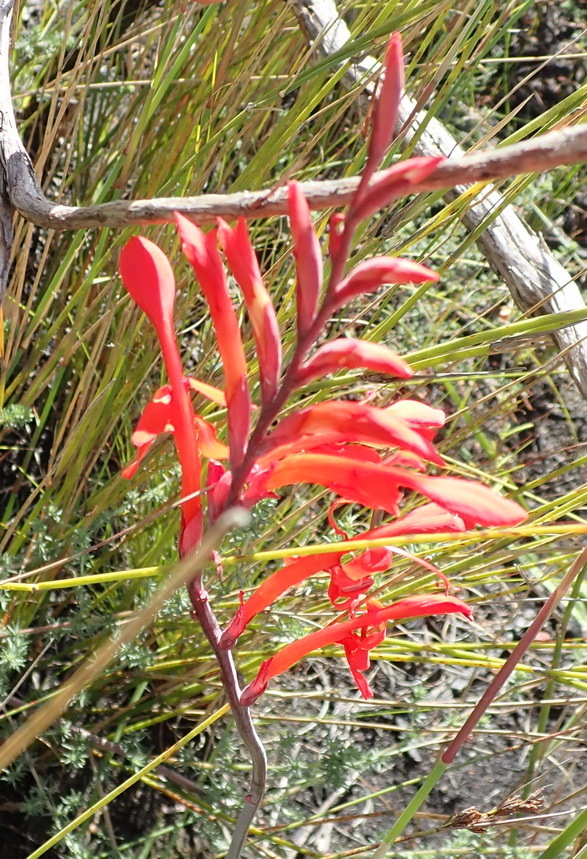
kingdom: Plantae
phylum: Tracheophyta
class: Liliopsida
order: Asparagales
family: Iridaceae
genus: Tritoniopsis
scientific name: Tritoniopsis caffra
